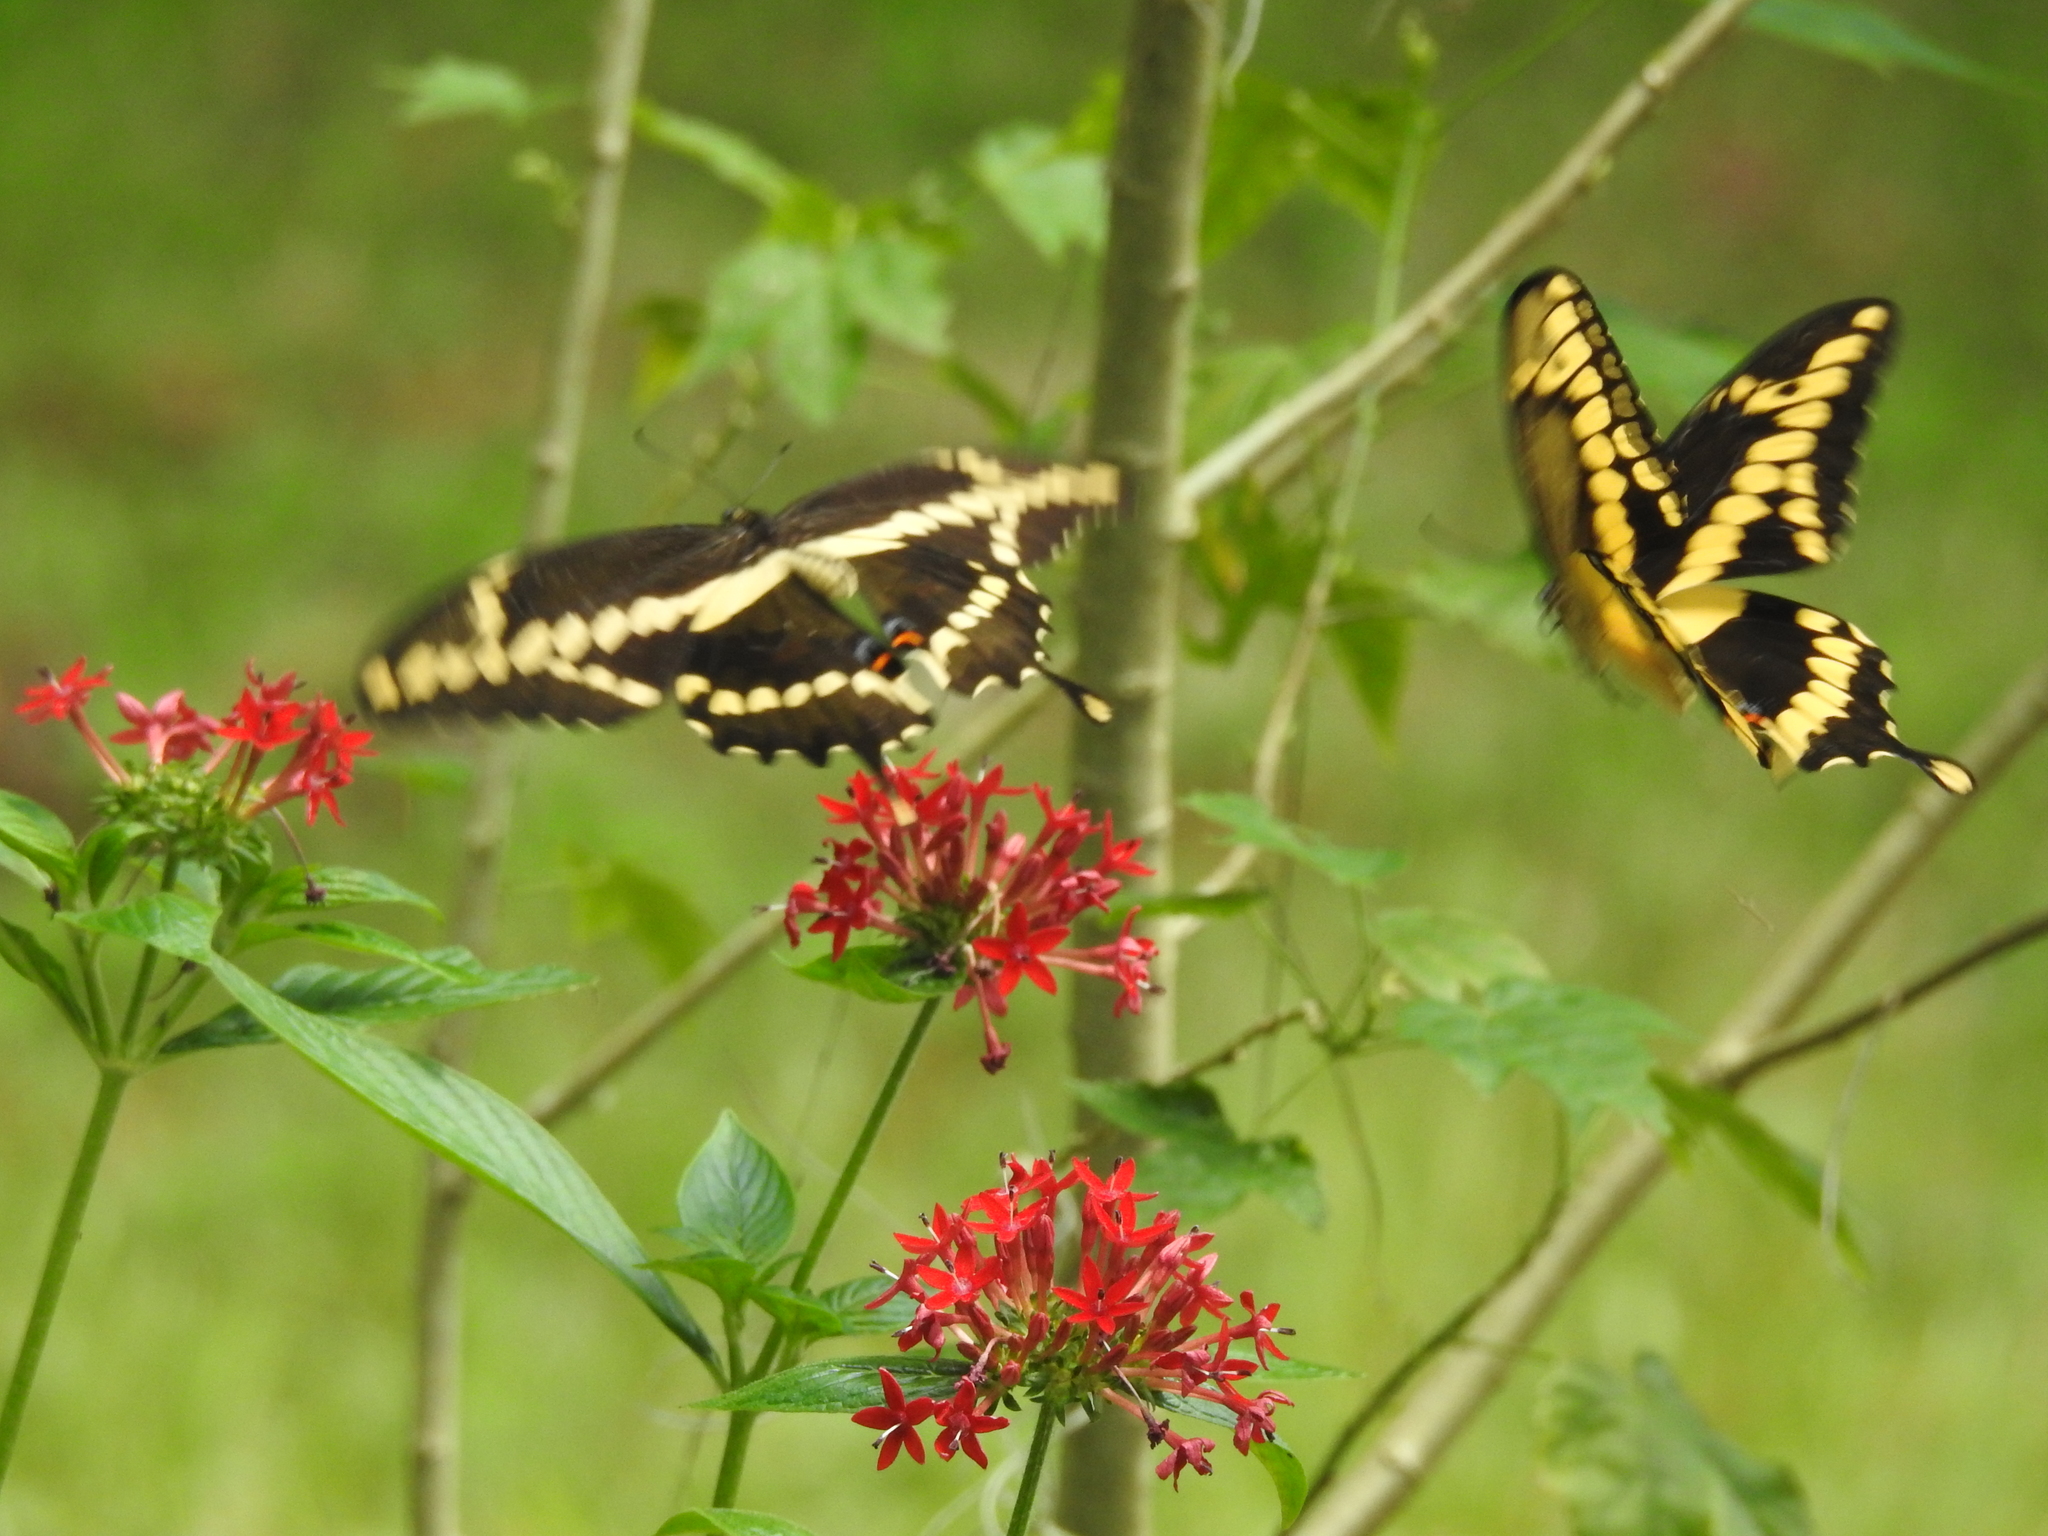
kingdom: Animalia
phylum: Arthropoda
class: Insecta
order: Lepidoptera
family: Papilionidae
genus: Papilio
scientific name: Papilio cresphontes
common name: Giant swallowtail
